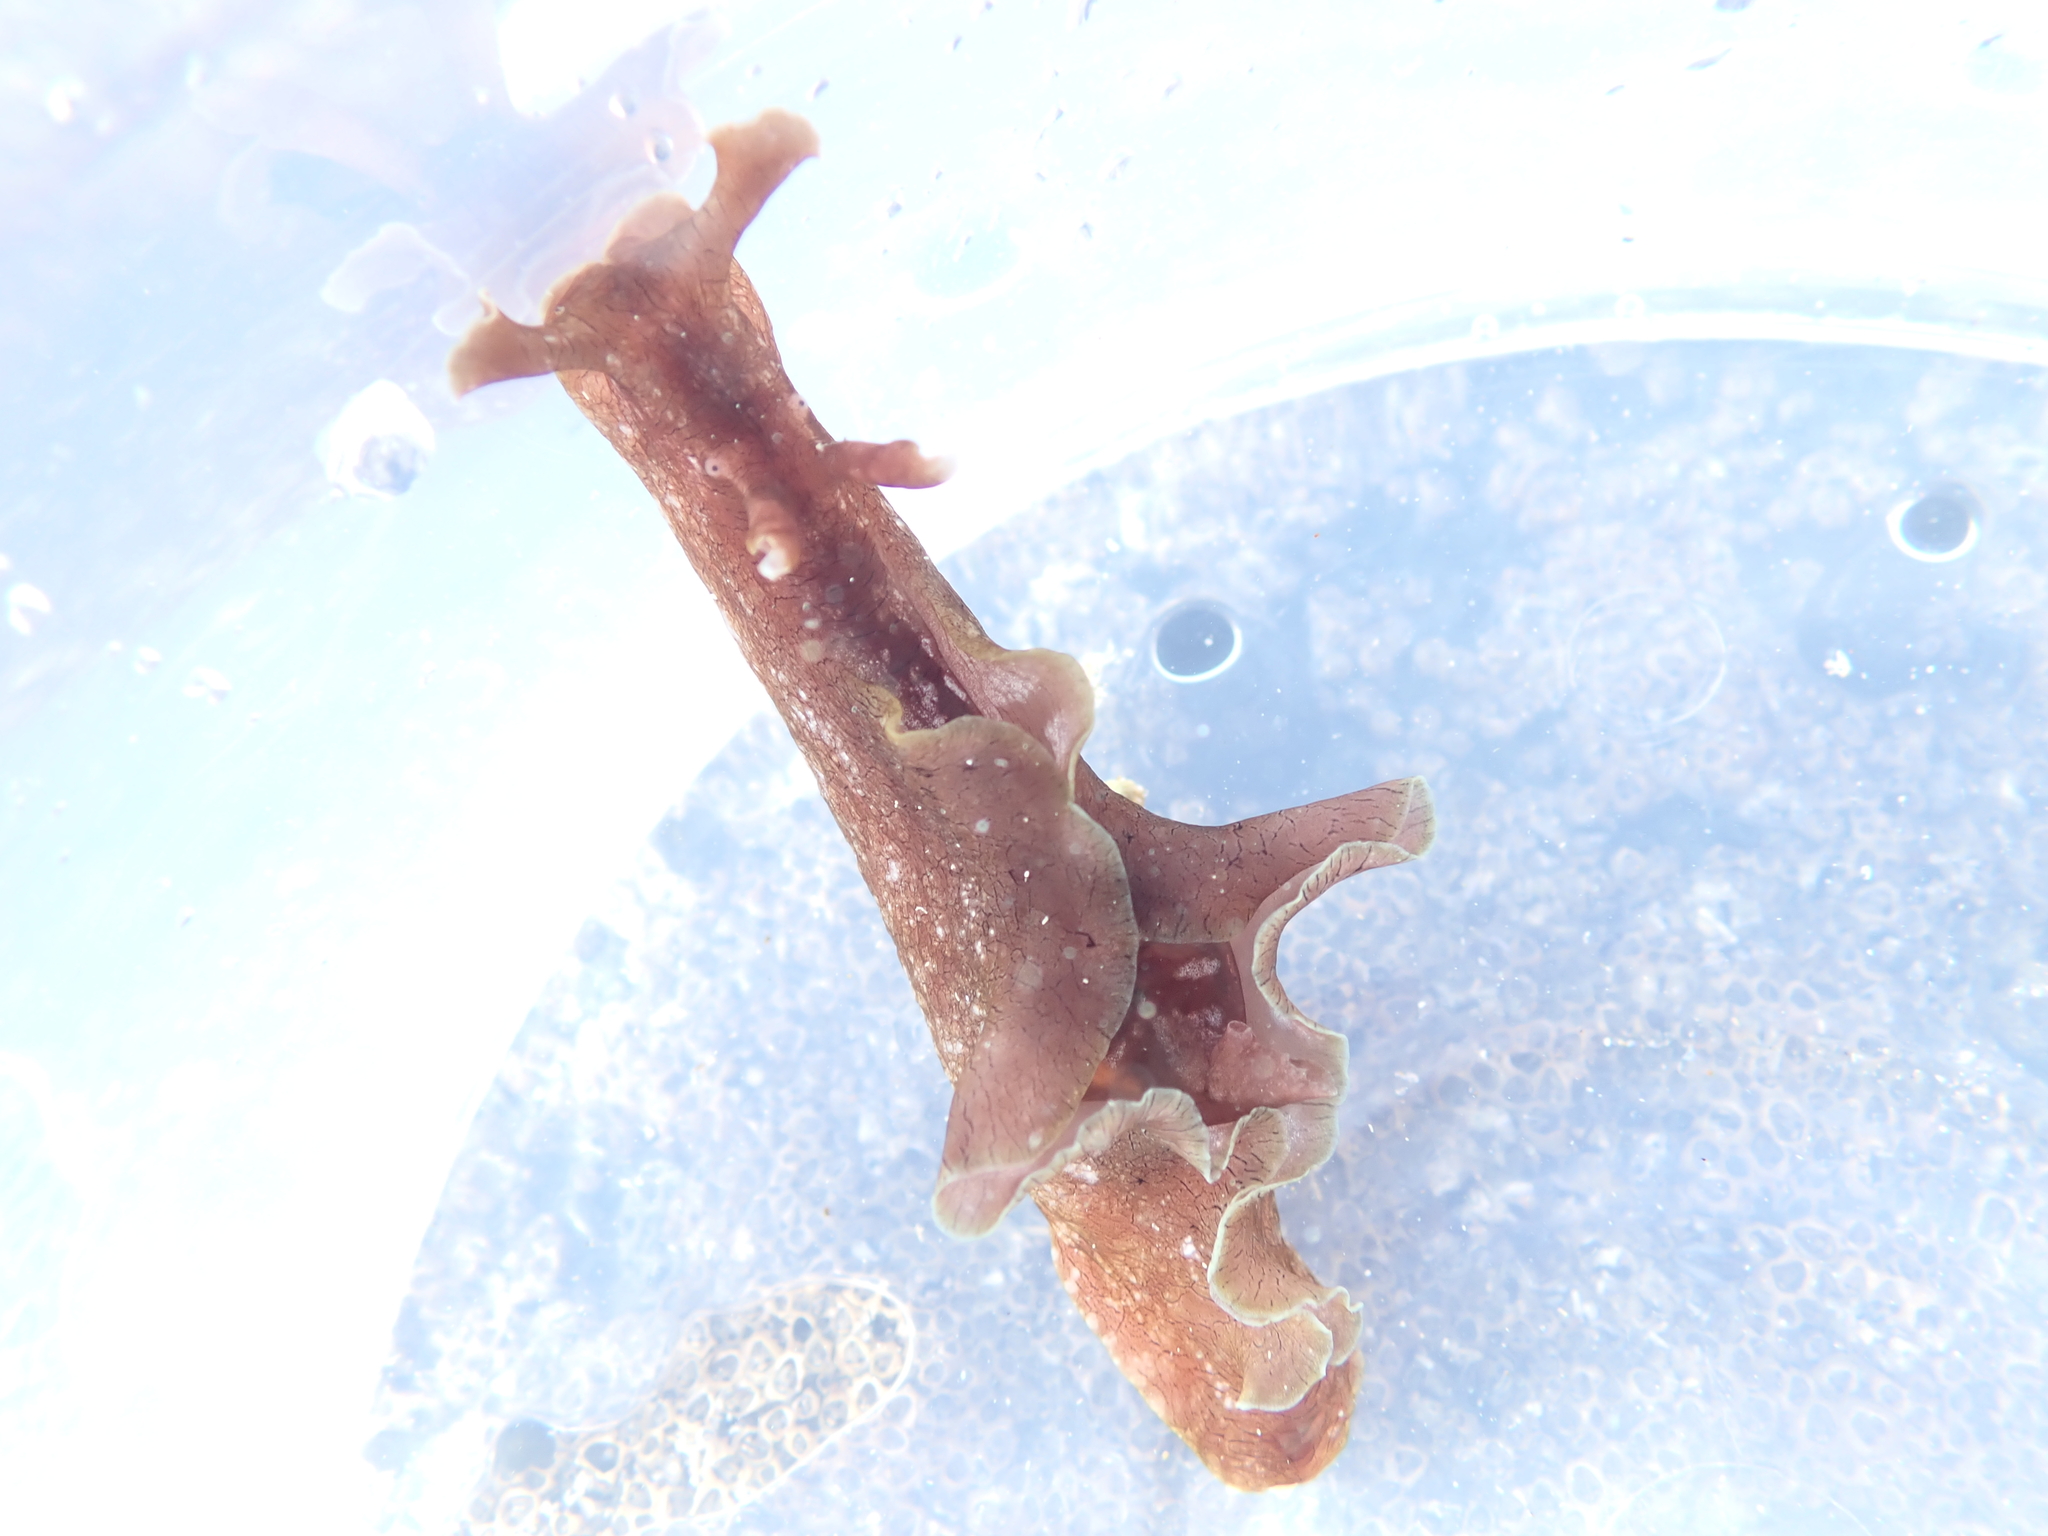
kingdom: Animalia
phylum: Mollusca
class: Gastropoda
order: Aplysiida
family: Aplysiidae
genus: Aplysia
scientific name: Aplysia keraudreni
